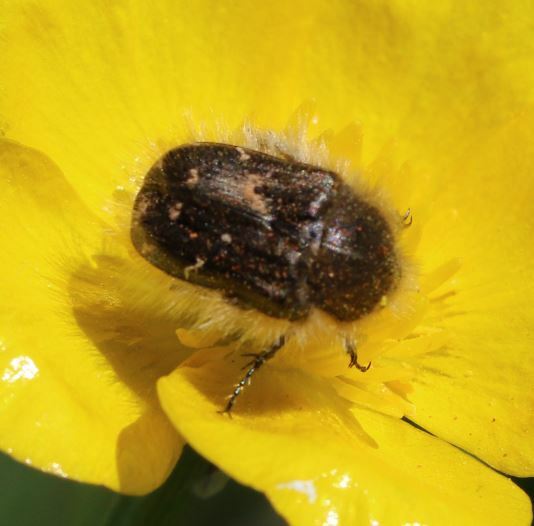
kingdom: Animalia
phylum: Arthropoda
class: Insecta
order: Coleoptera
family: Scarabaeidae
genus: Tropinota
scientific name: Tropinota hirta
